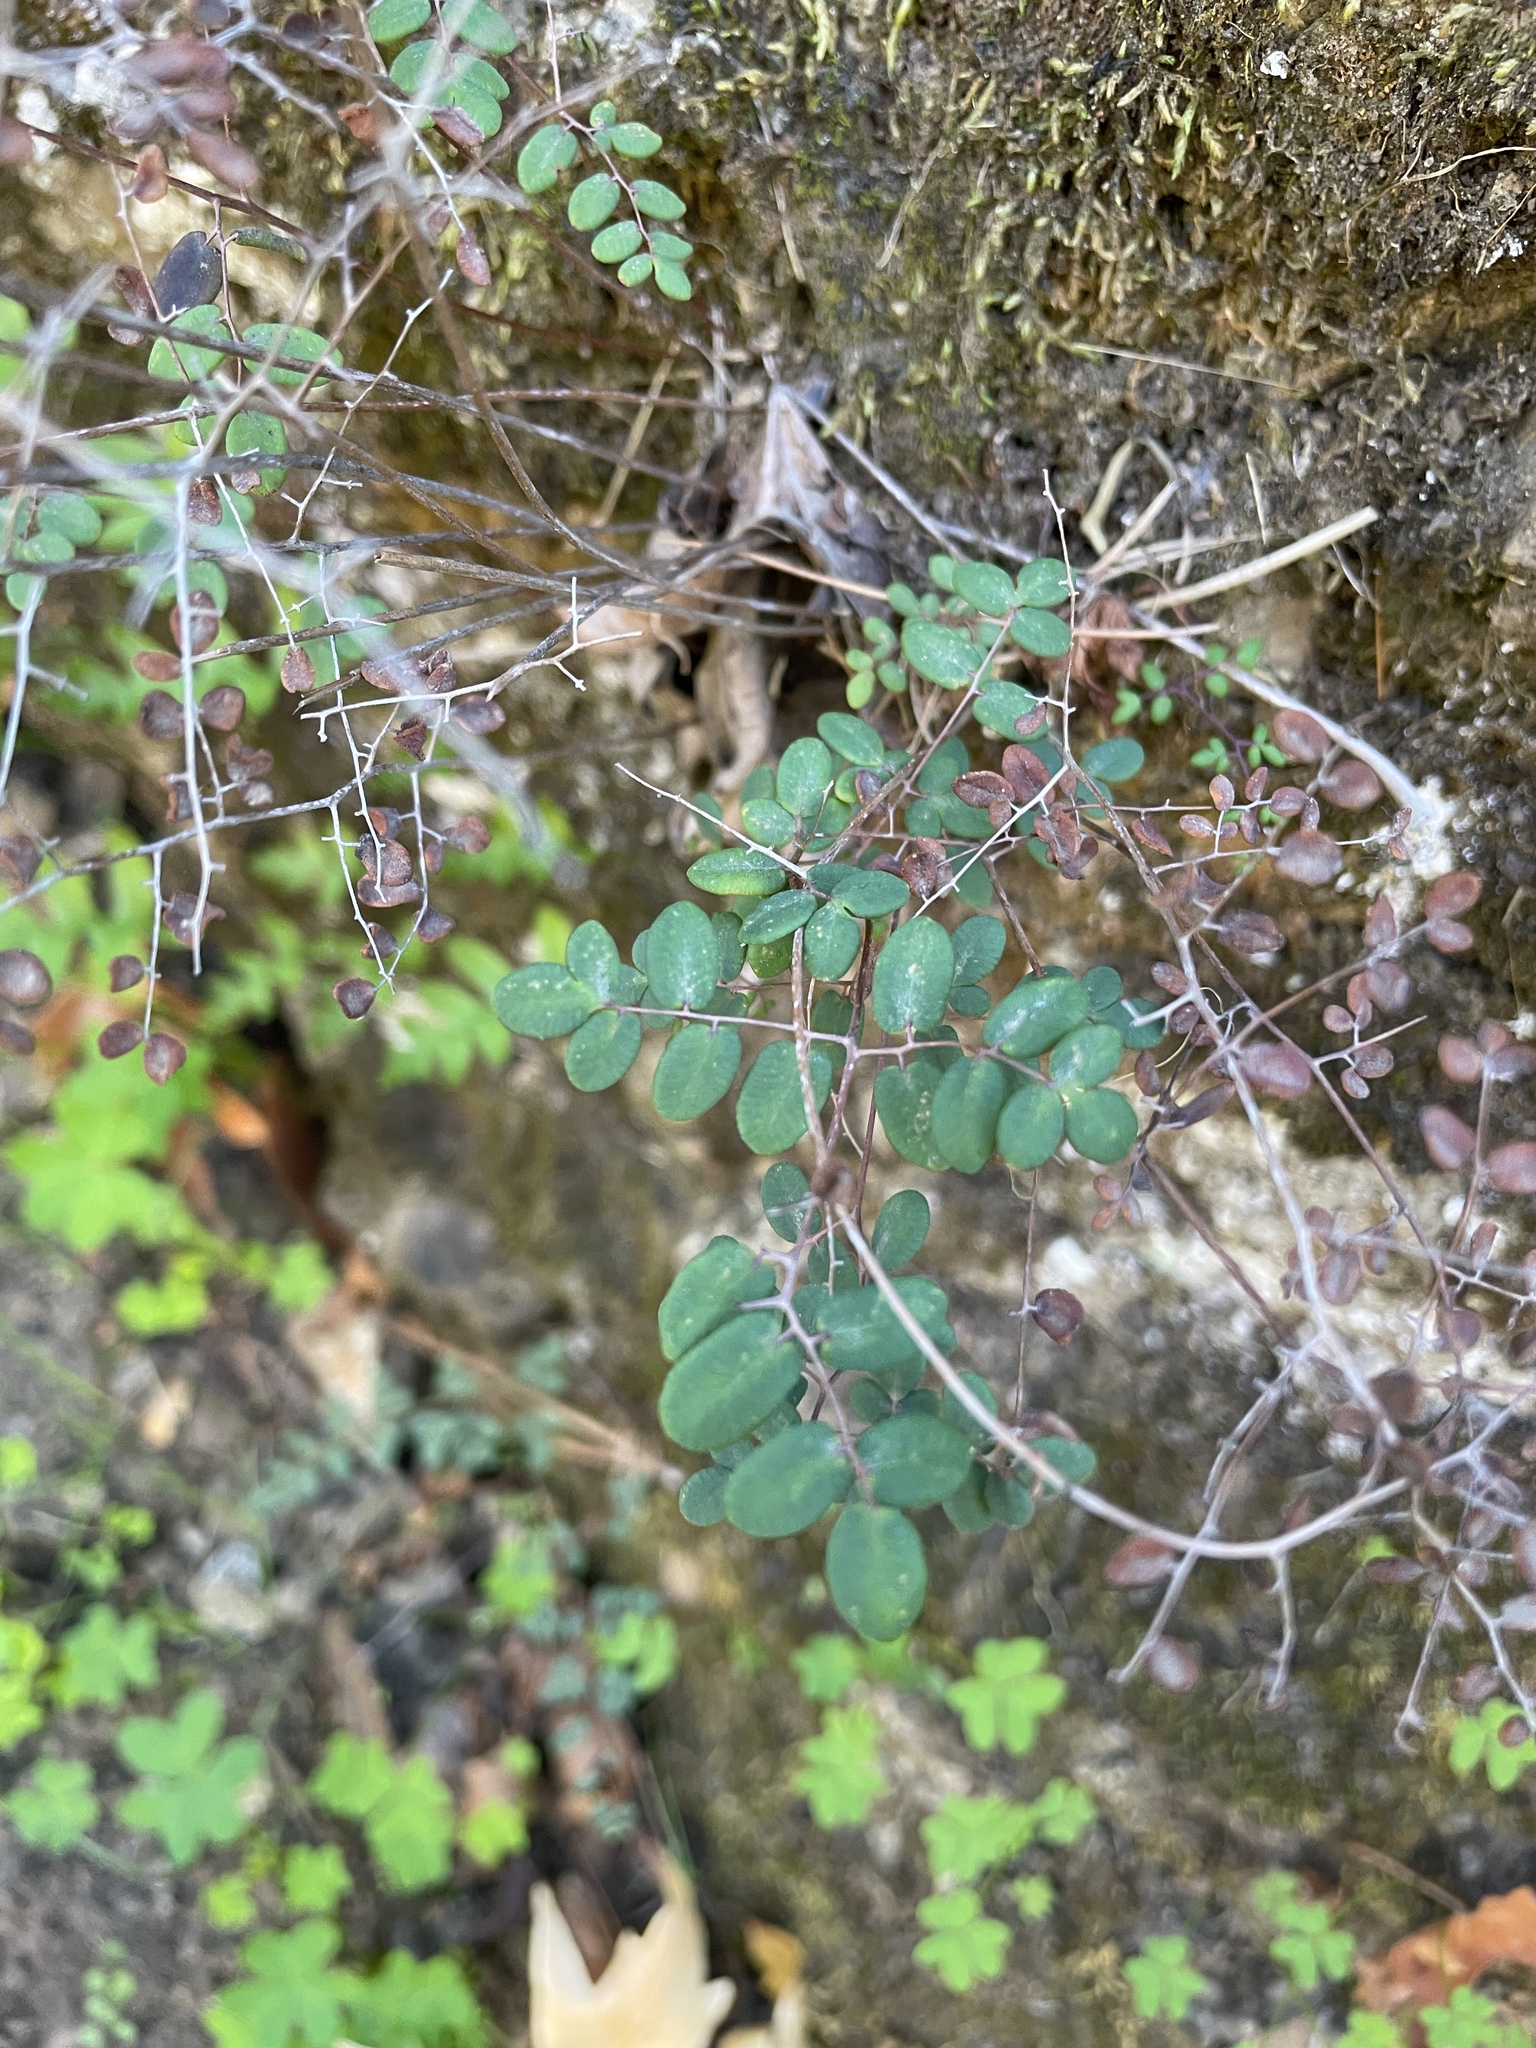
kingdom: Plantae
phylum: Tracheophyta
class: Polypodiopsida
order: Polypodiales
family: Pteridaceae
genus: Pellaea
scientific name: Pellaea andromedifolia
